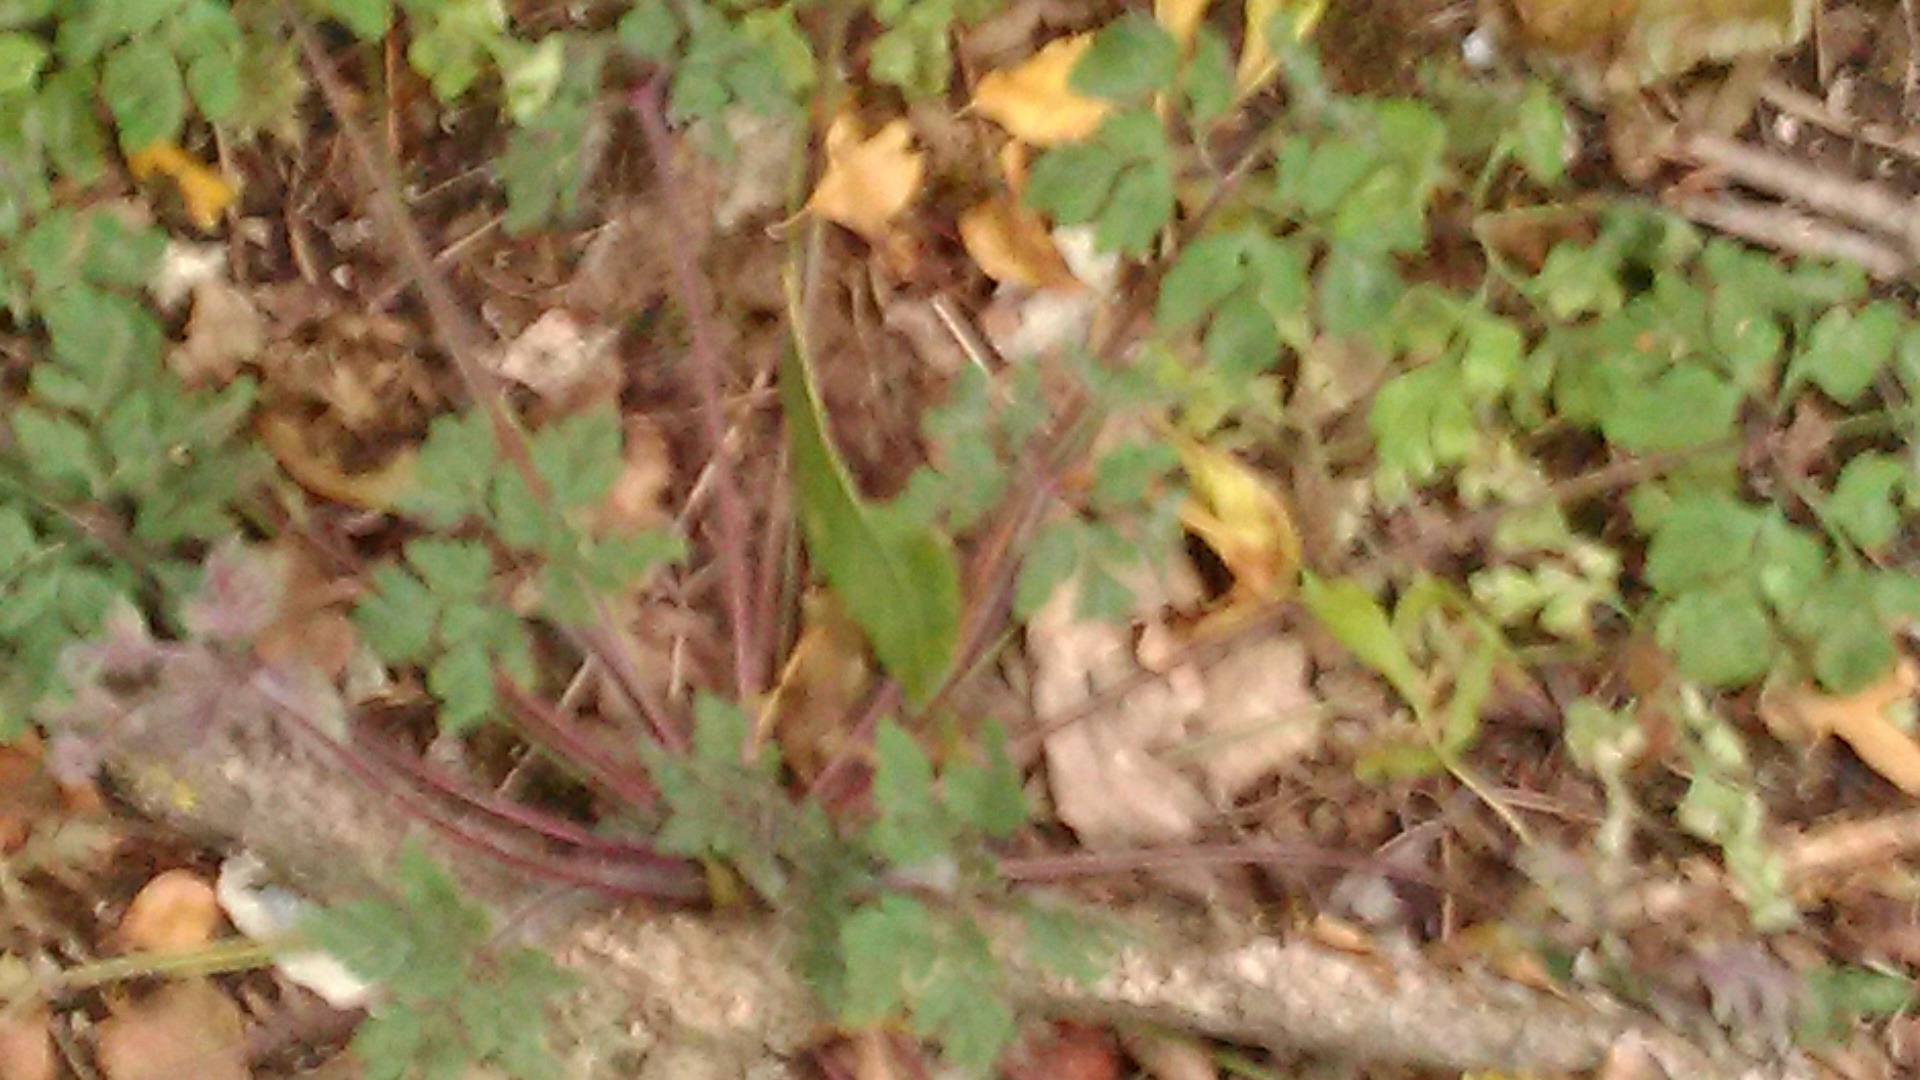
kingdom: Plantae
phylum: Tracheophyta
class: Magnoliopsida
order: Geraniales
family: Geraniaceae
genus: Geranium
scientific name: Geranium robertianum
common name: Herb-robert
